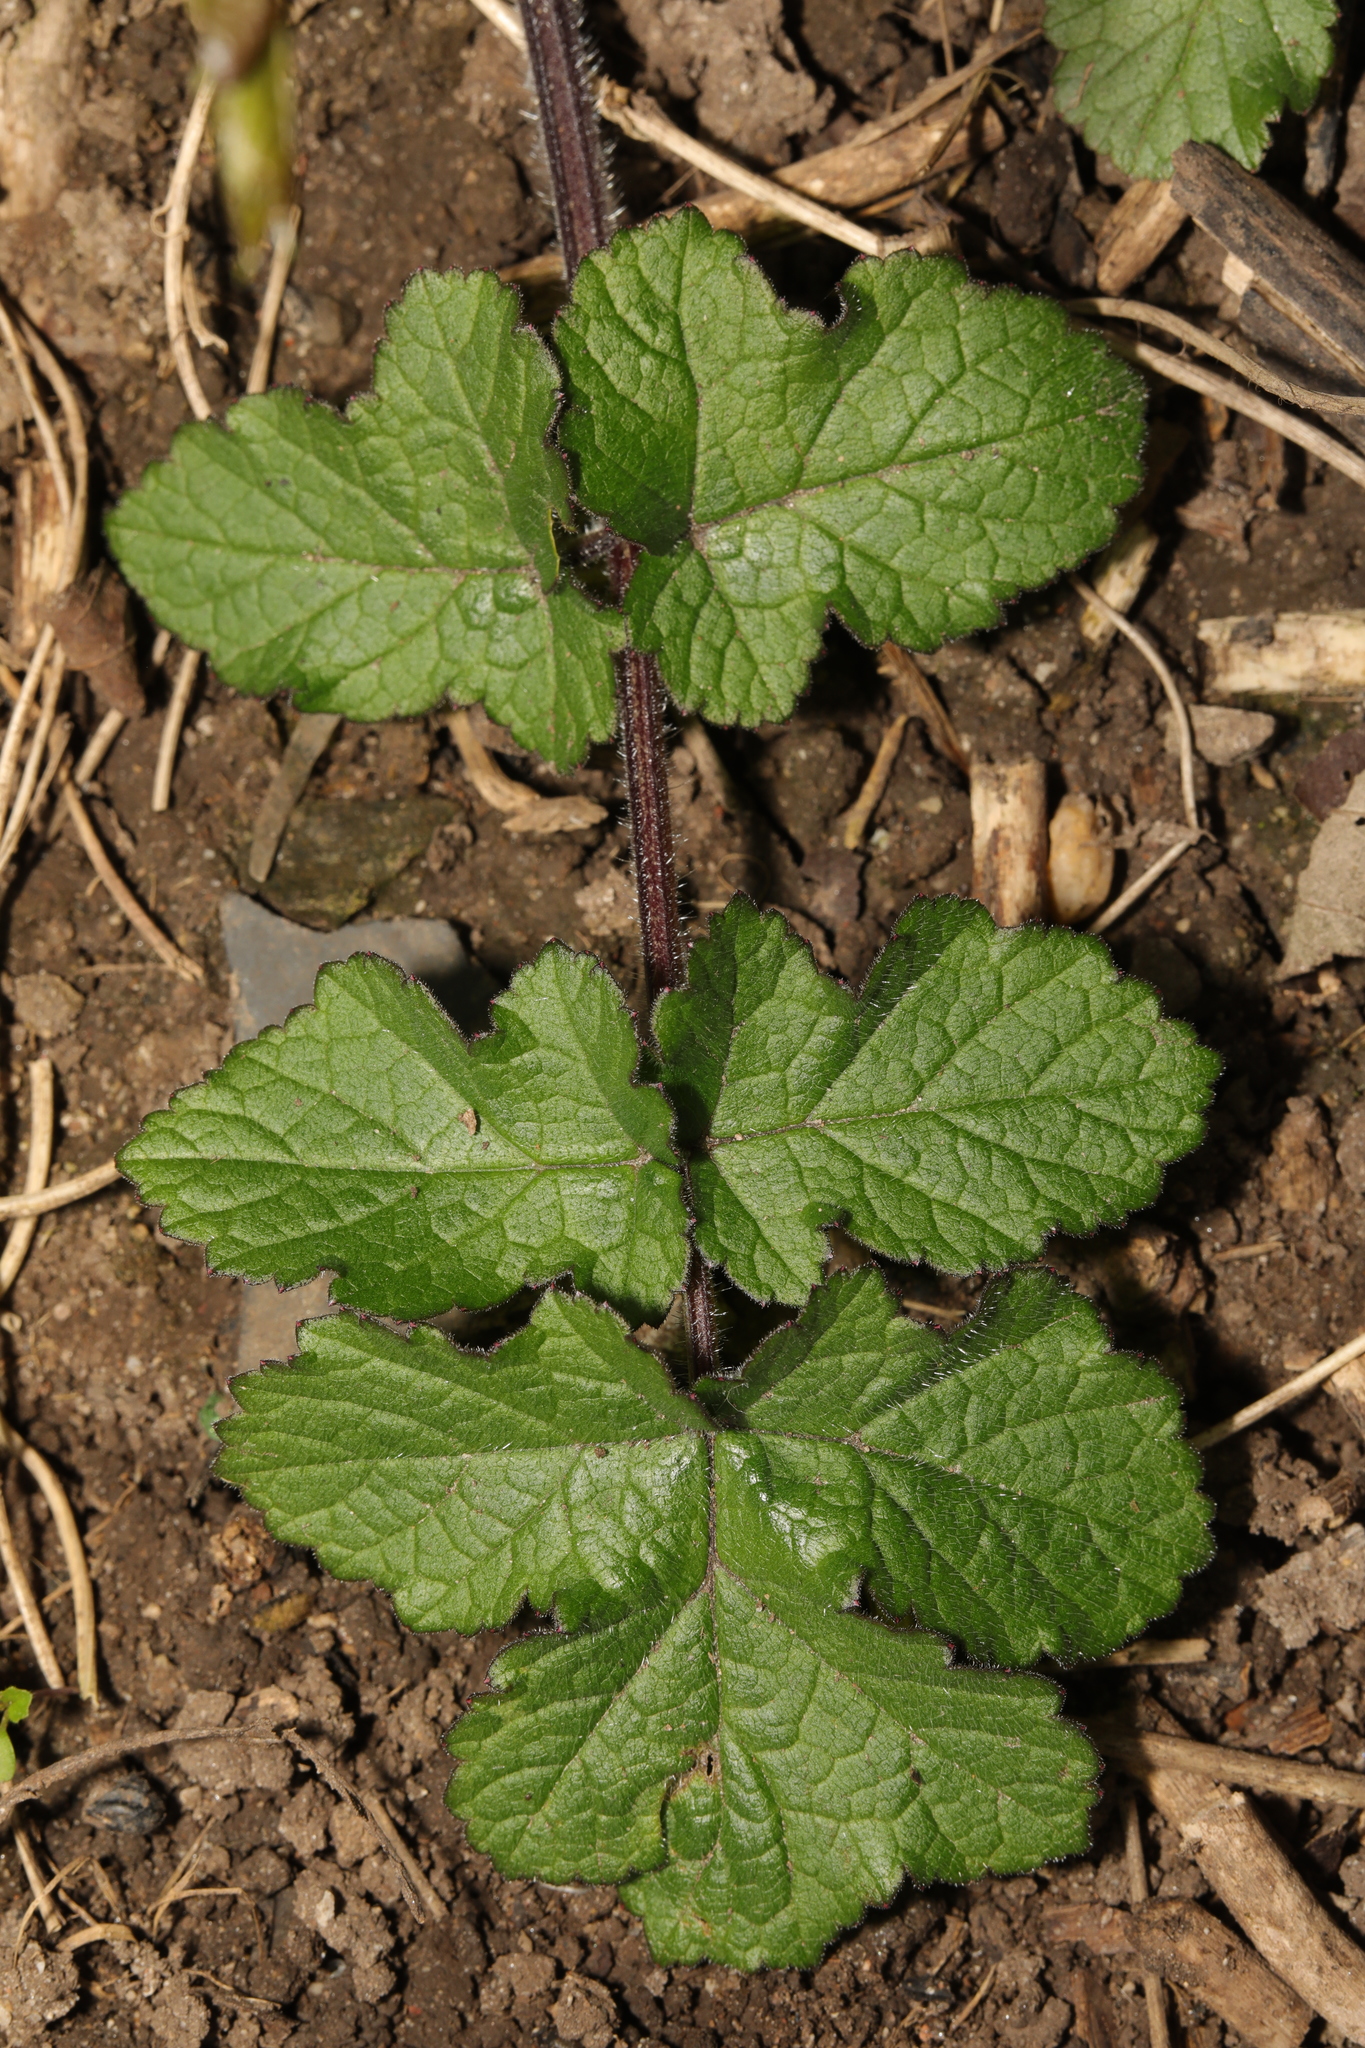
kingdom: Plantae
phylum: Tracheophyta
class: Magnoliopsida
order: Apiales
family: Apiaceae
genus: Heracleum
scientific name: Heracleum sphondylium
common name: Hogweed
